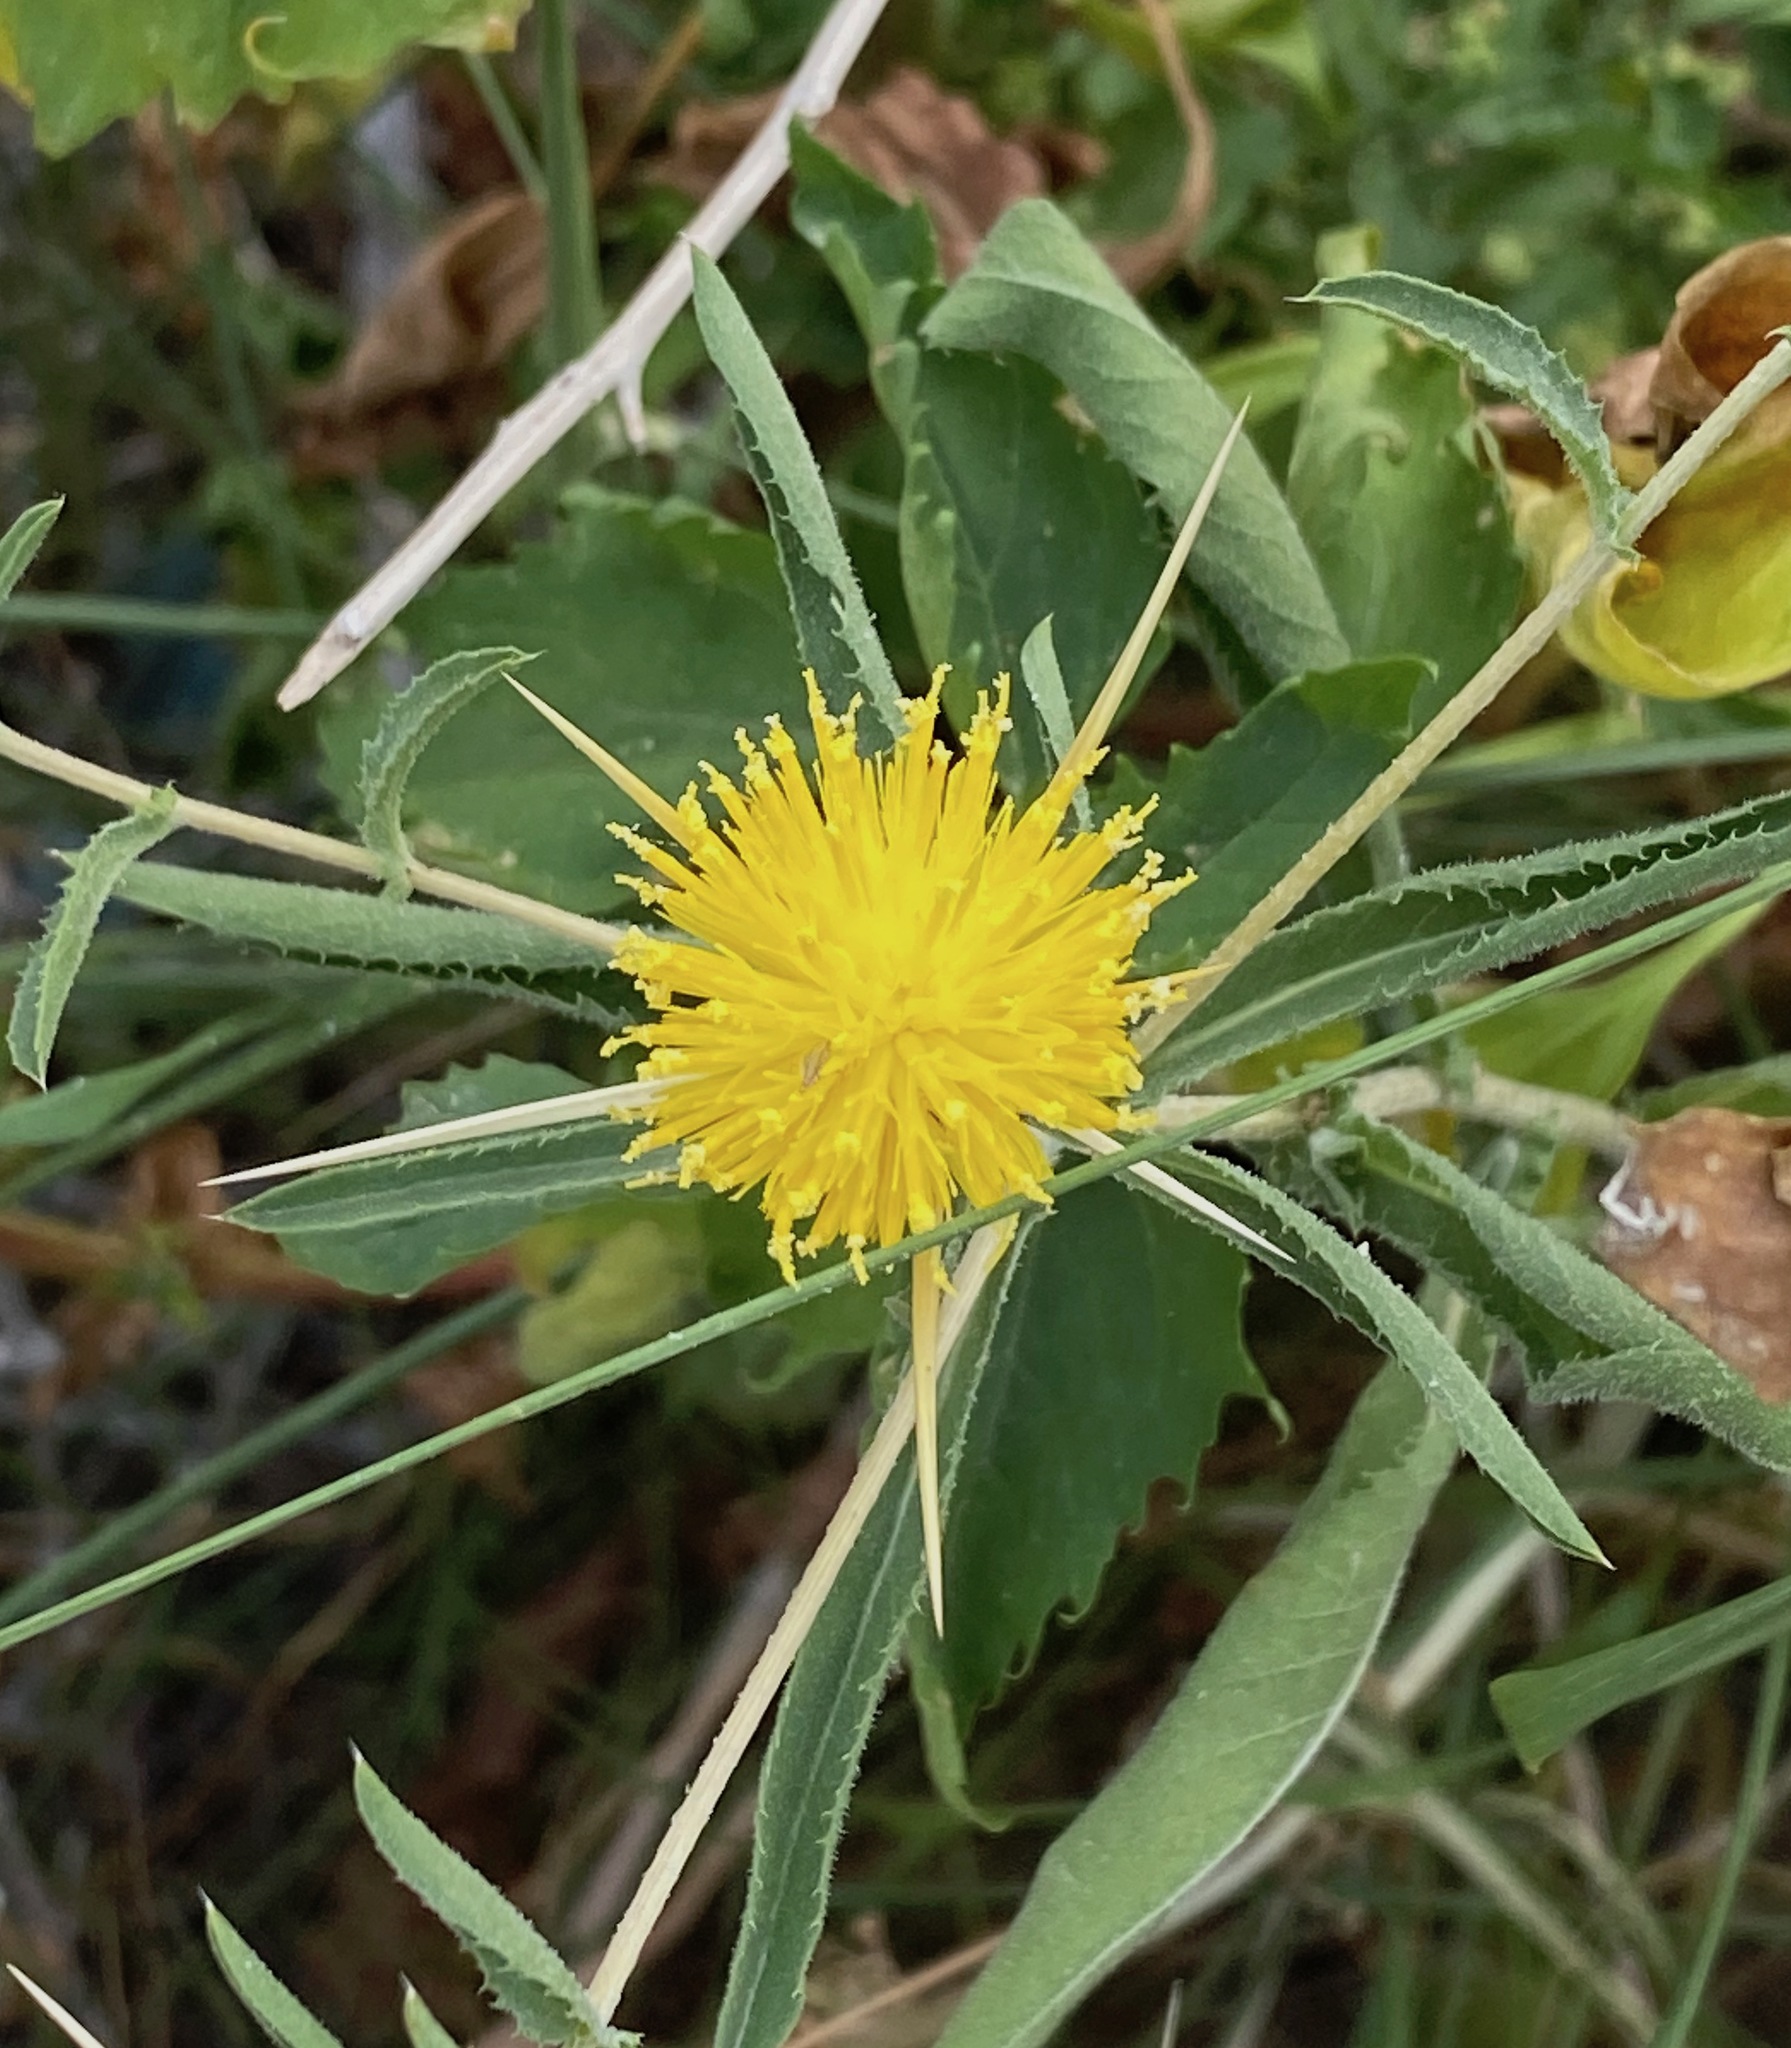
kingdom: Plantae
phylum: Tracheophyta
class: Magnoliopsida
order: Asterales
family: Asteraceae
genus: Centaurea
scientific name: Centaurea iberica
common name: Iberian knapweed
